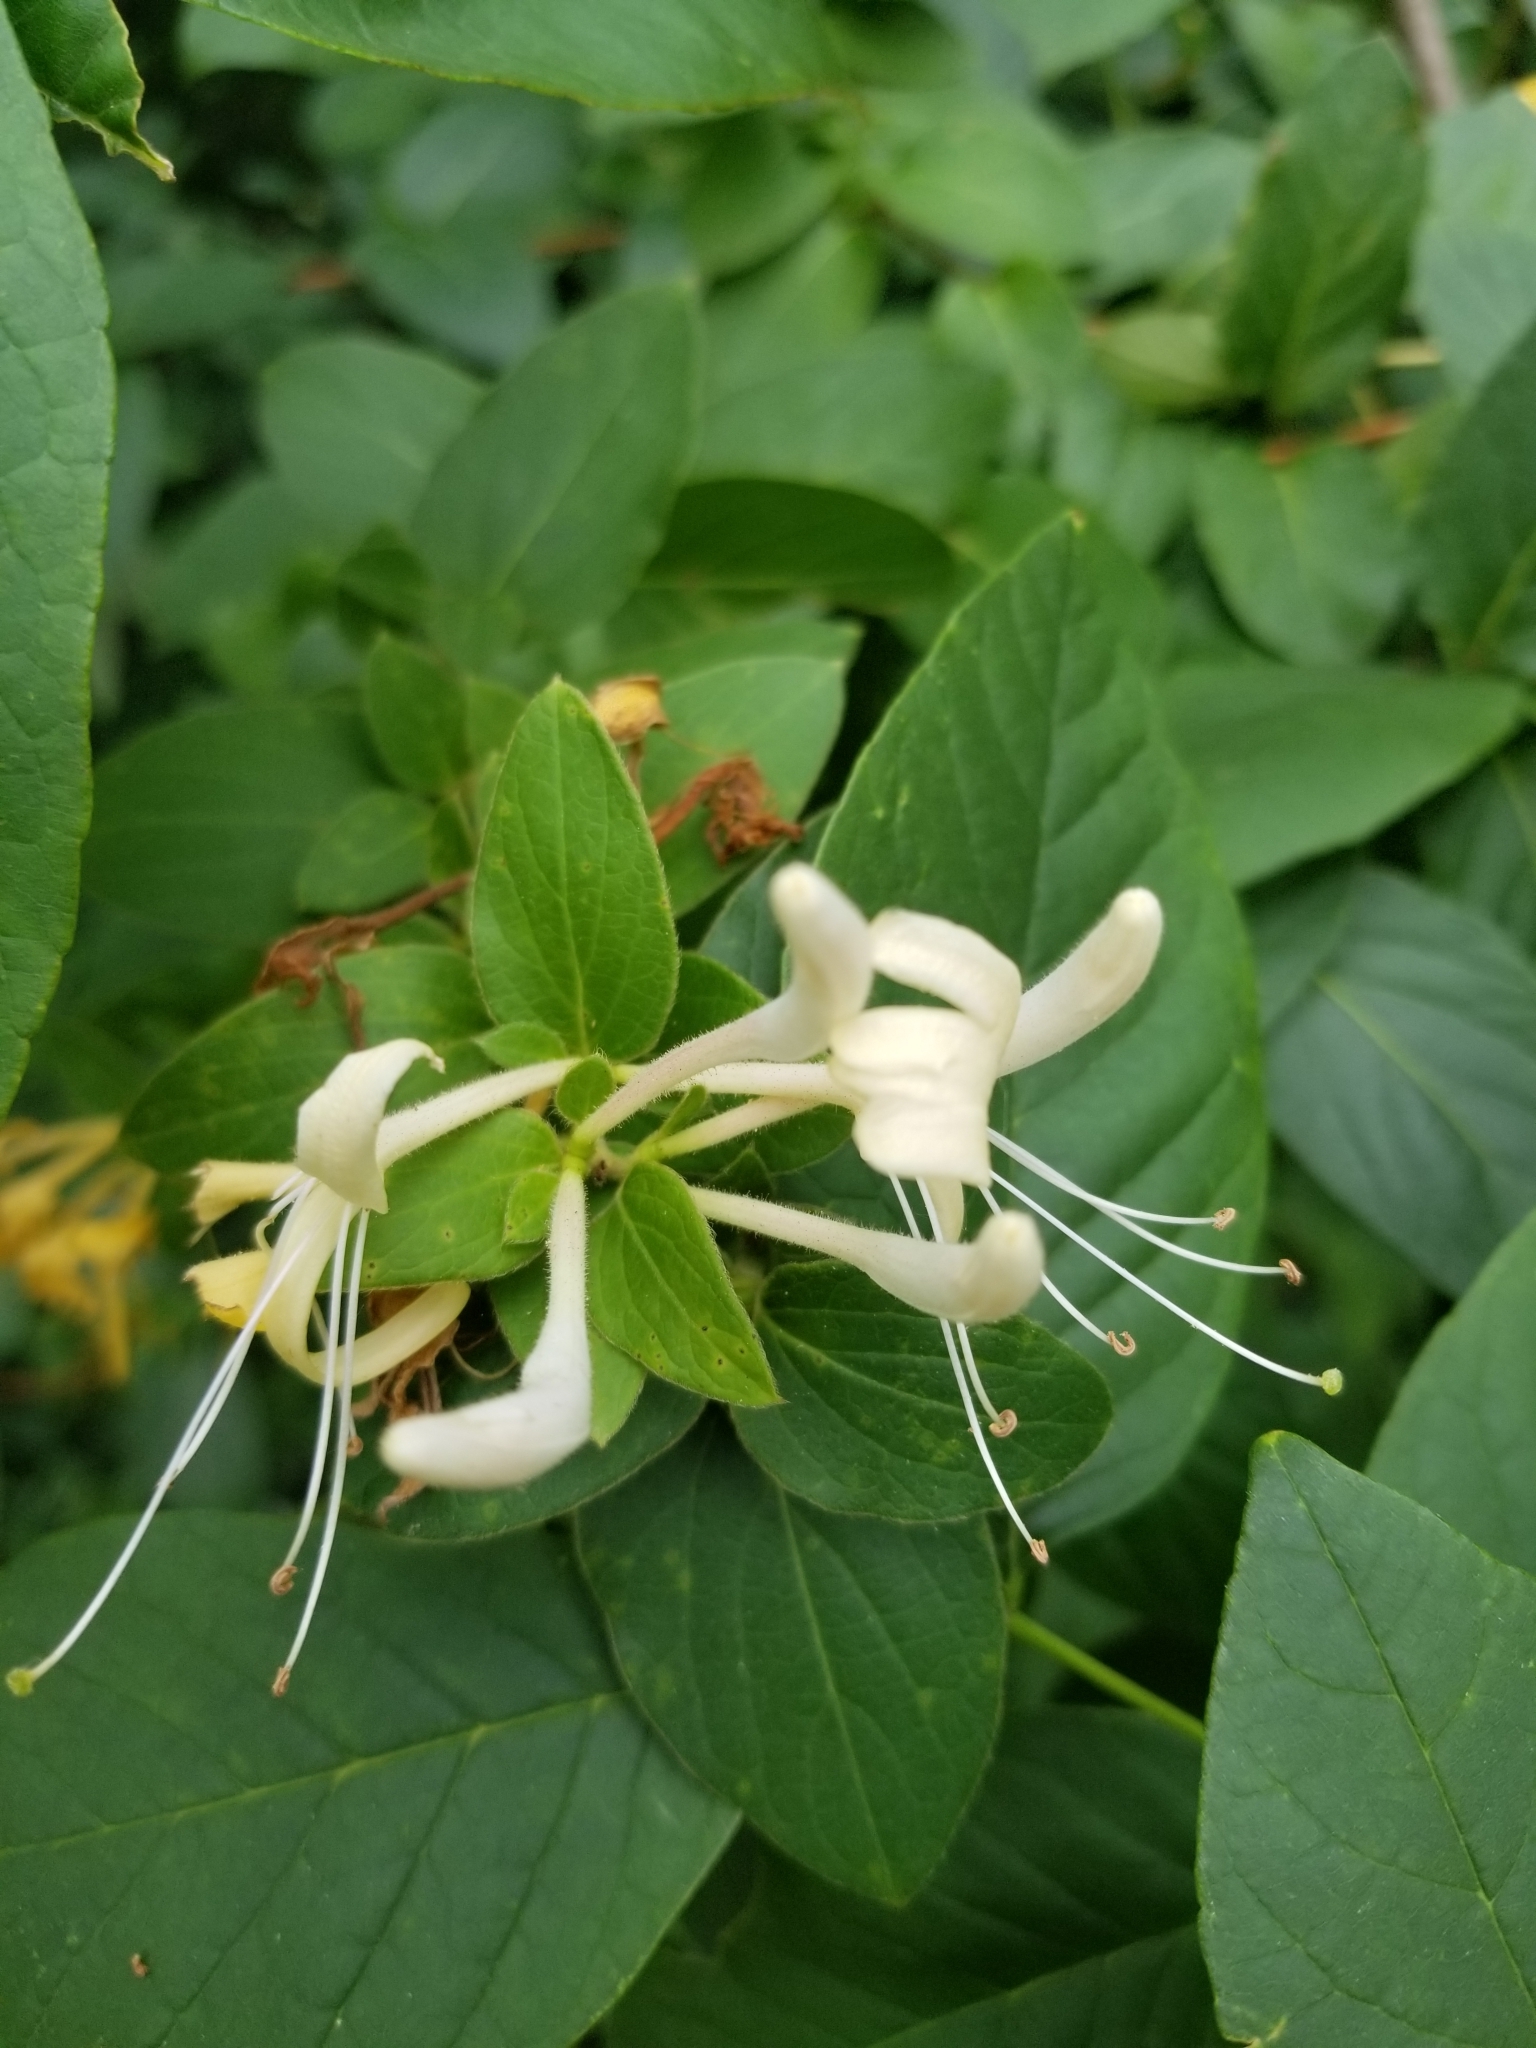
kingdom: Plantae
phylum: Tracheophyta
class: Magnoliopsida
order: Dipsacales
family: Caprifoliaceae
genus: Lonicera
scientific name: Lonicera japonica
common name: Japanese honeysuckle
